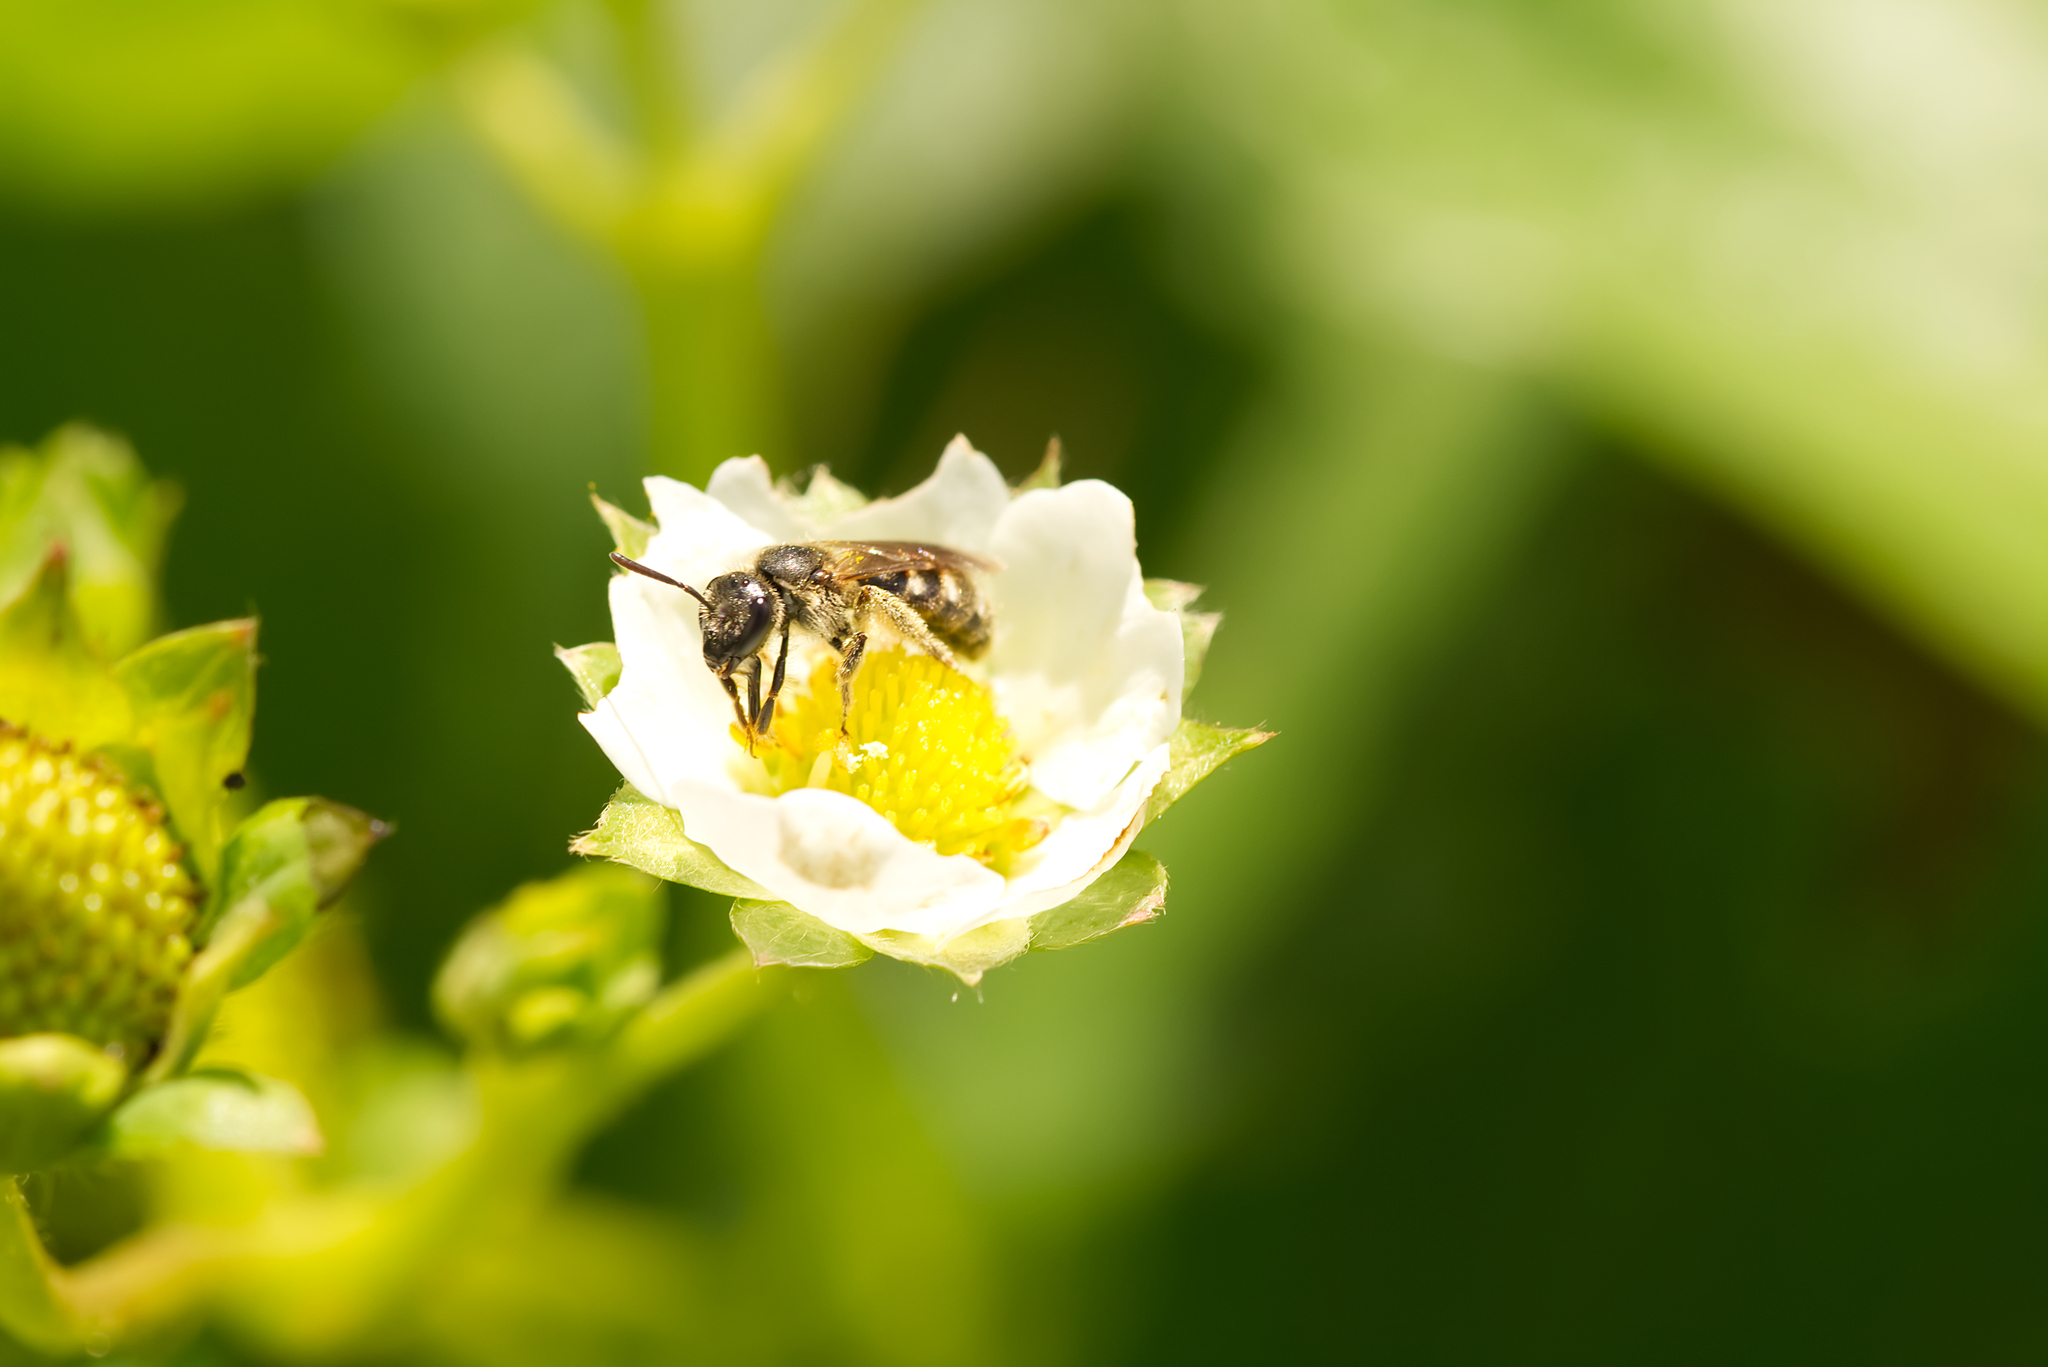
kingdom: Animalia
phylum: Arthropoda
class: Insecta
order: Hymenoptera
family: Halictidae
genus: Lasioglossum
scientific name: Lasioglossum
